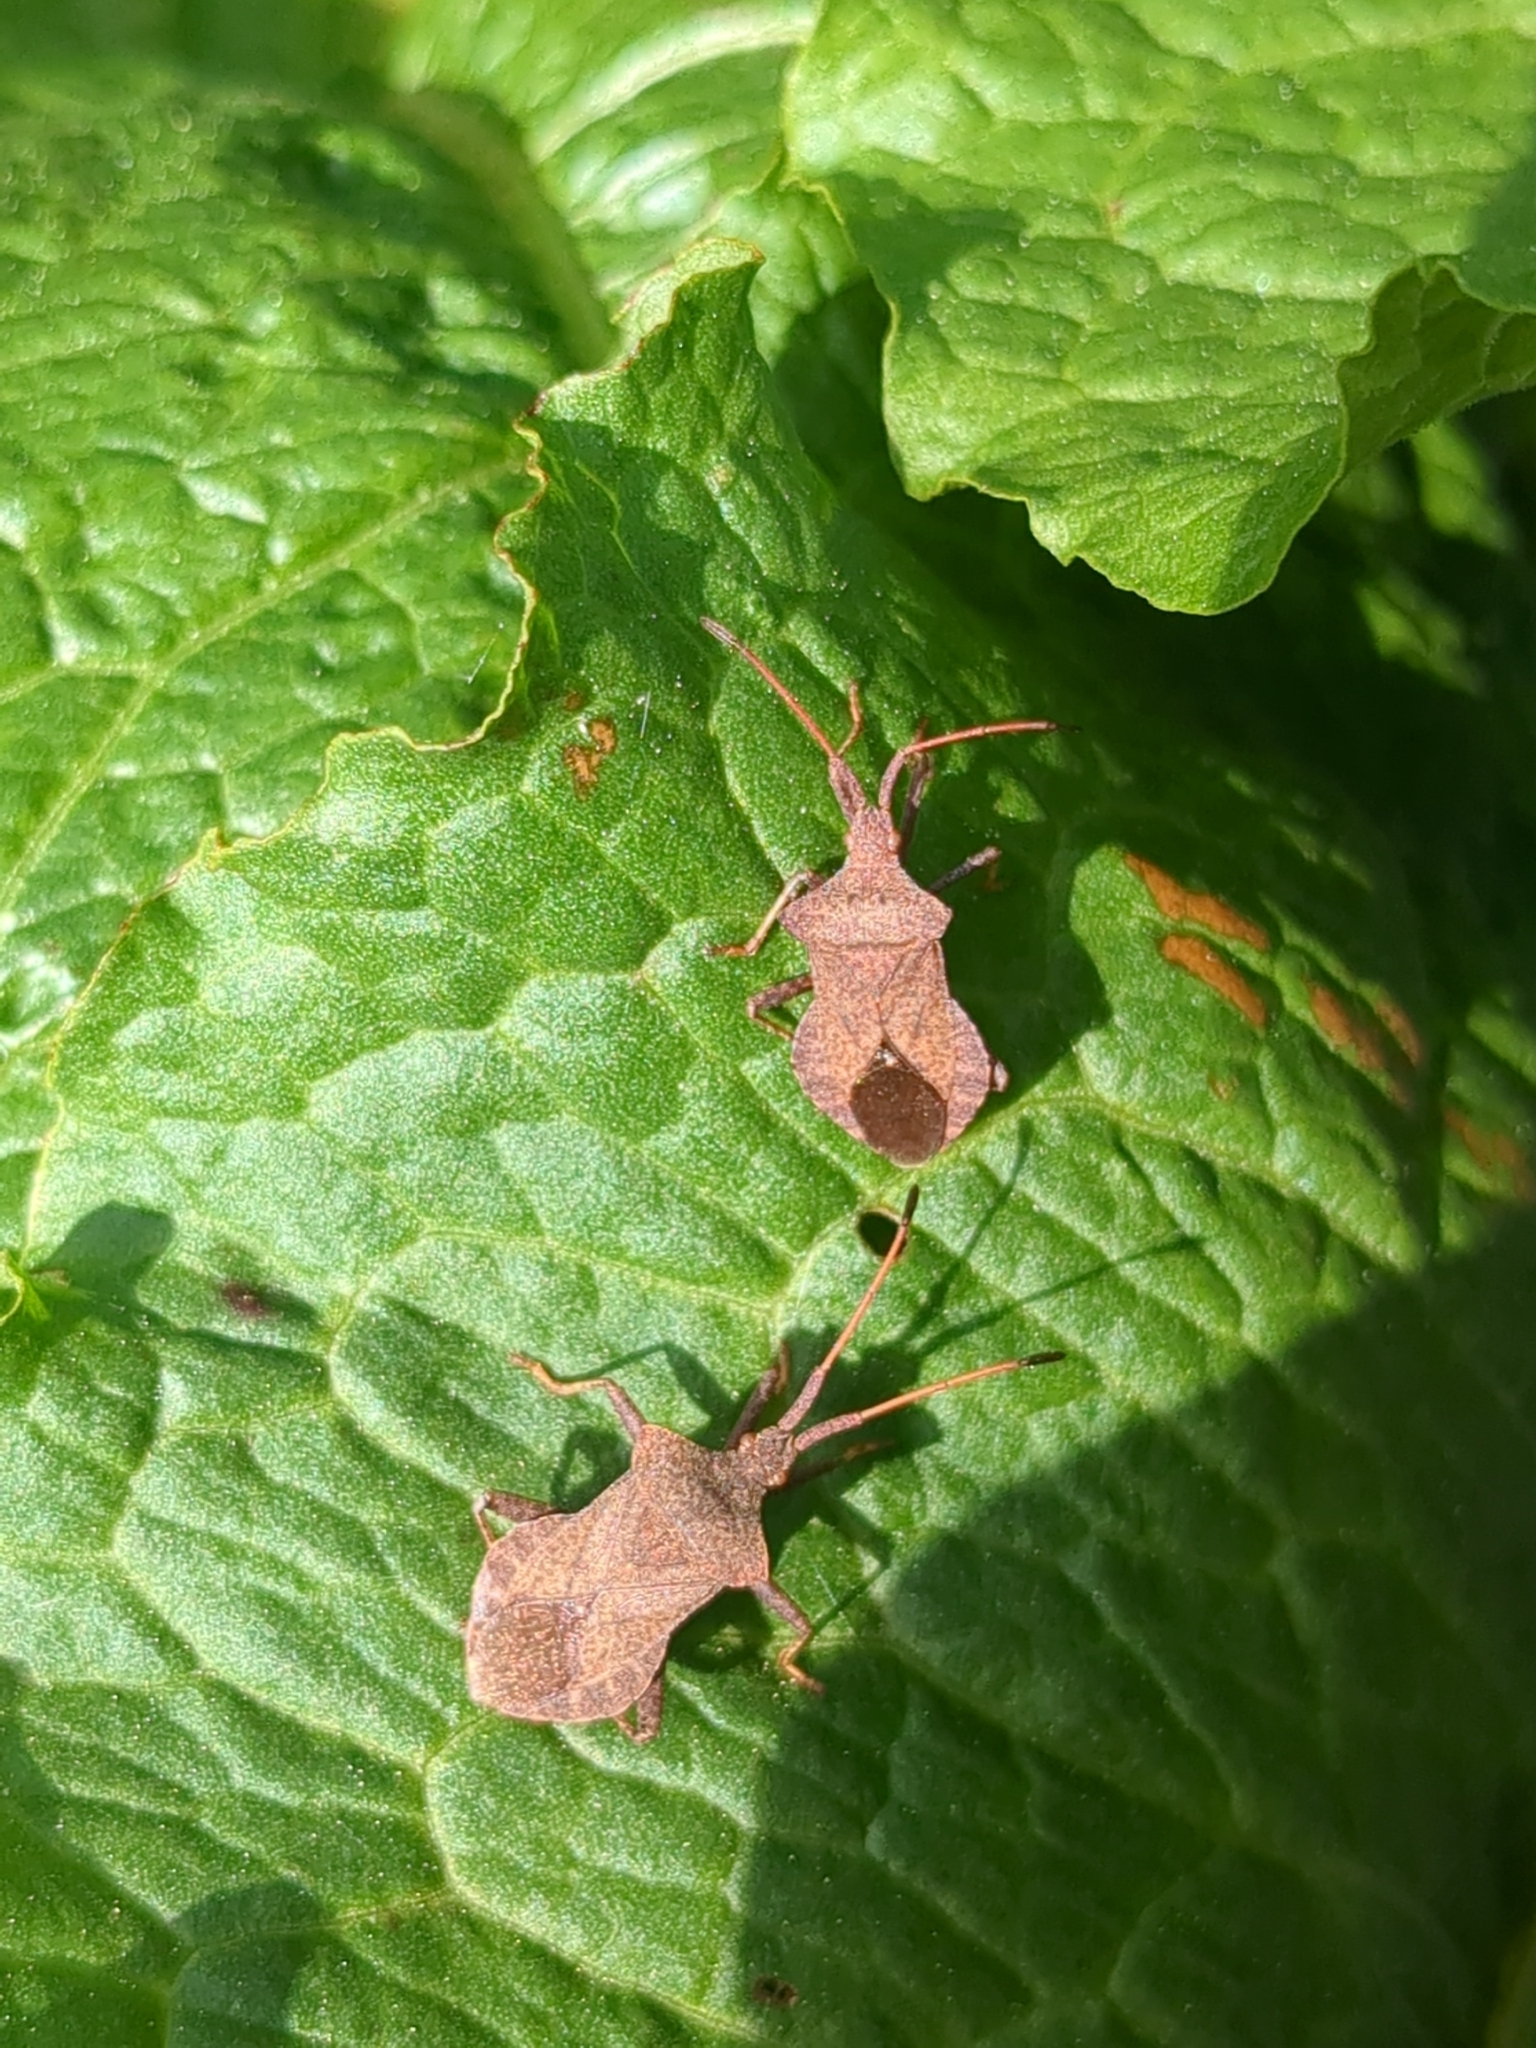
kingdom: Animalia
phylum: Arthropoda
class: Insecta
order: Hemiptera
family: Coreidae
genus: Coreus
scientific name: Coreus marginatus
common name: Dock bug
